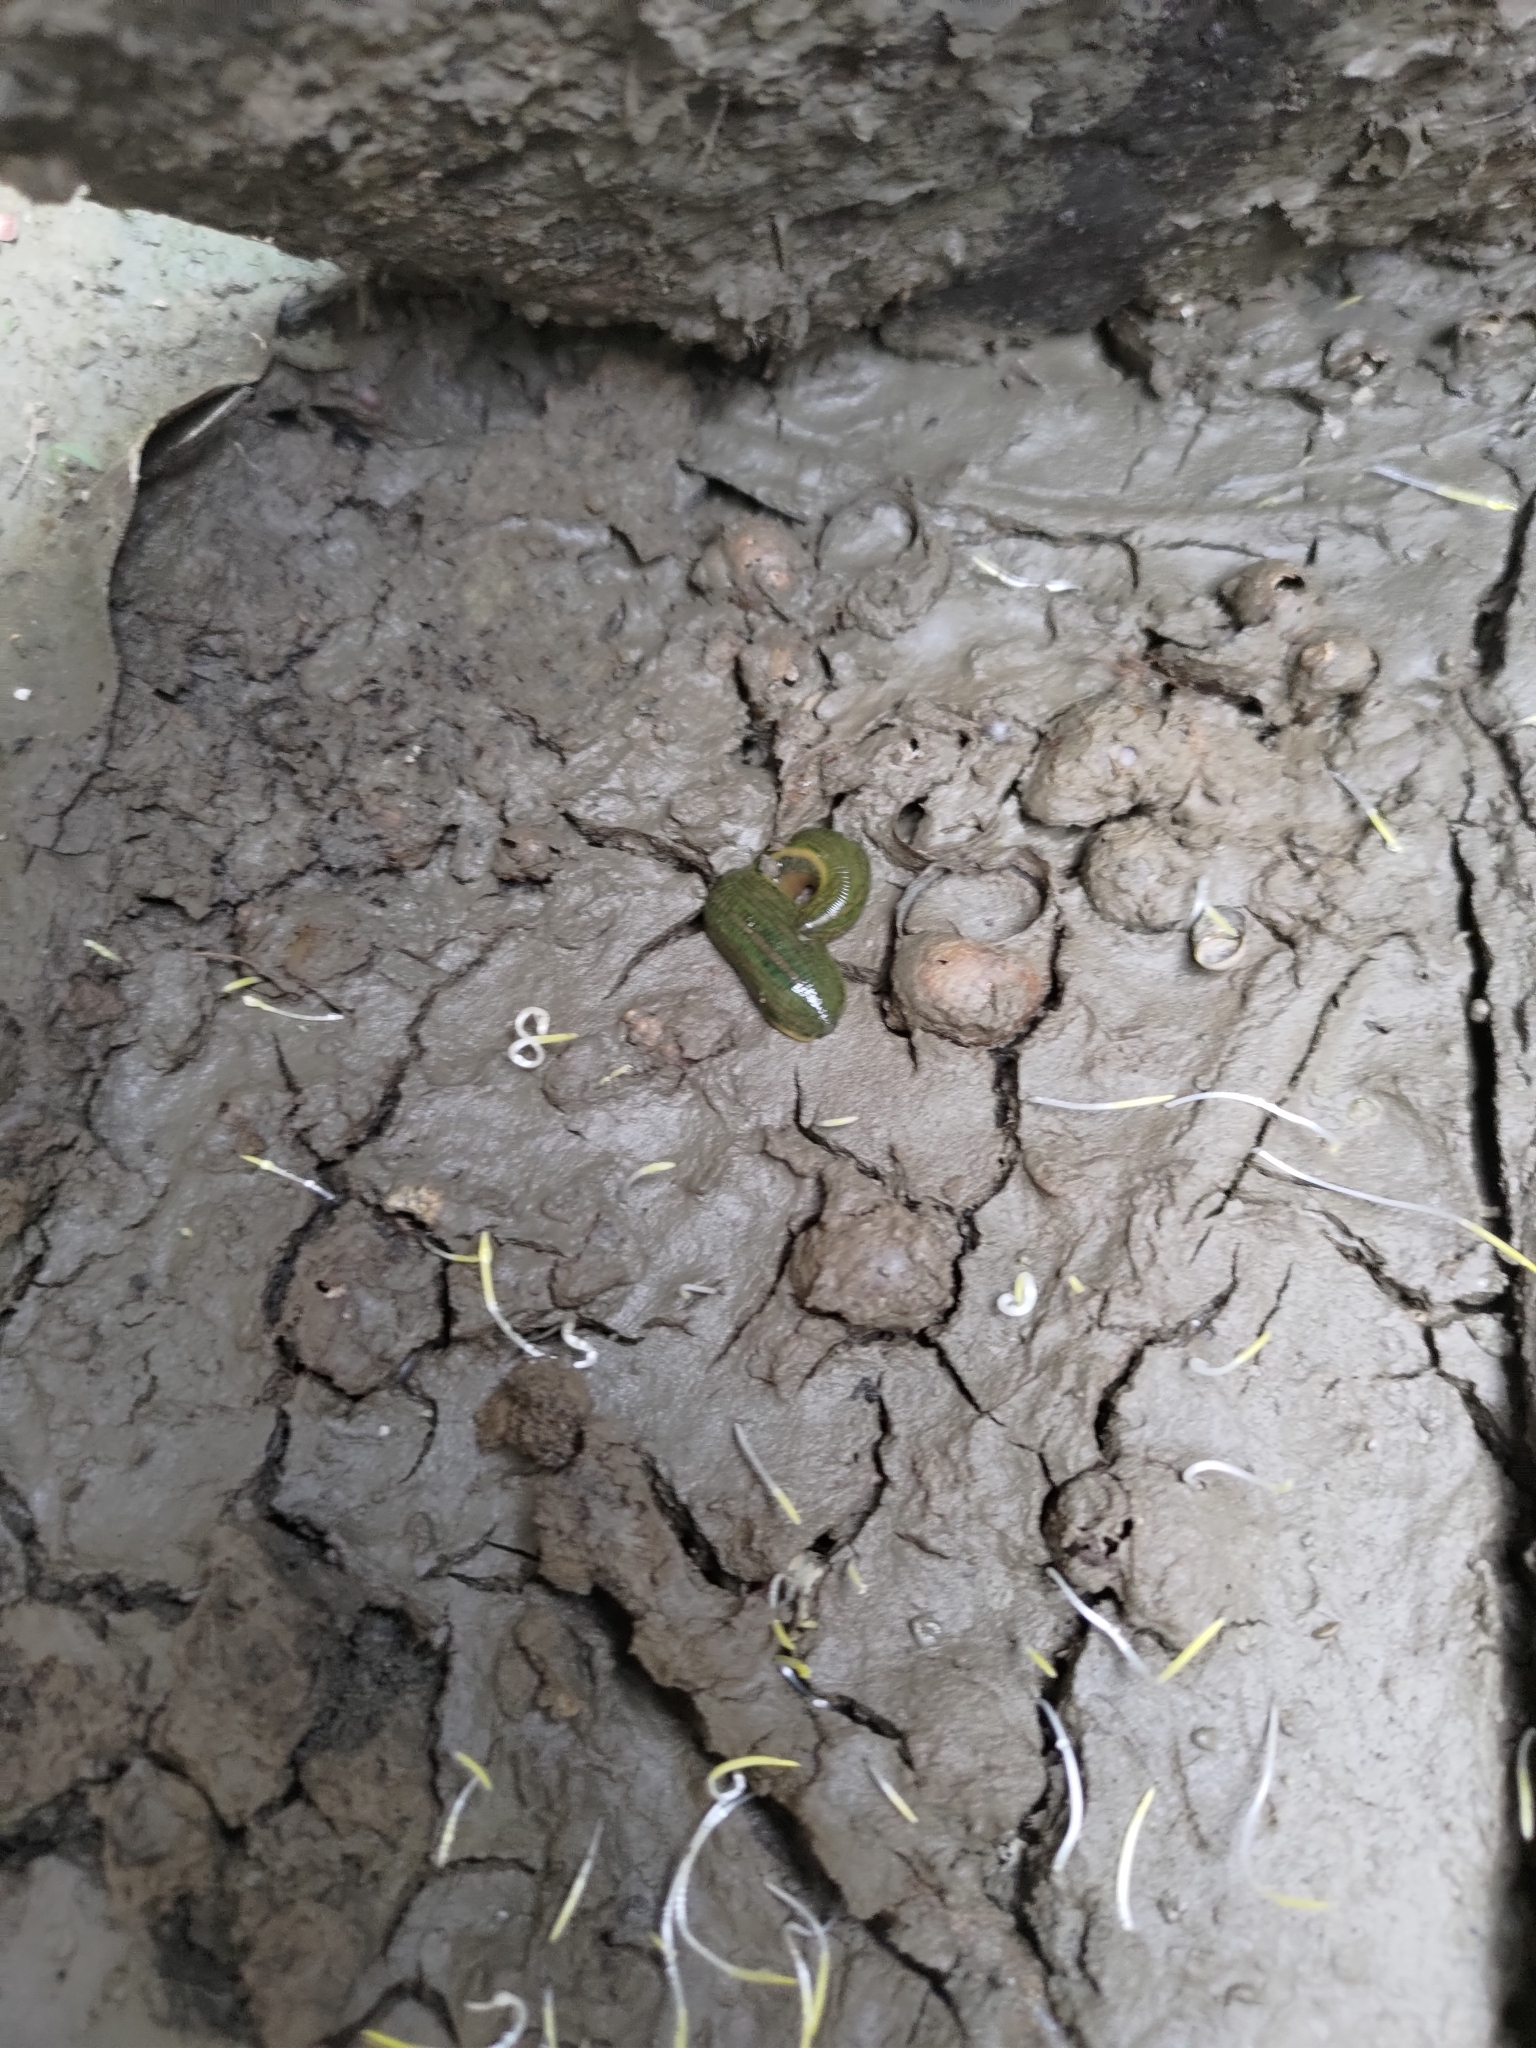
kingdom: Animalia
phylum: Annelida
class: Clitellata
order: Arhynchobdellida
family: Hirudinidae
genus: Whitmania
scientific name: Whitmania laevis
